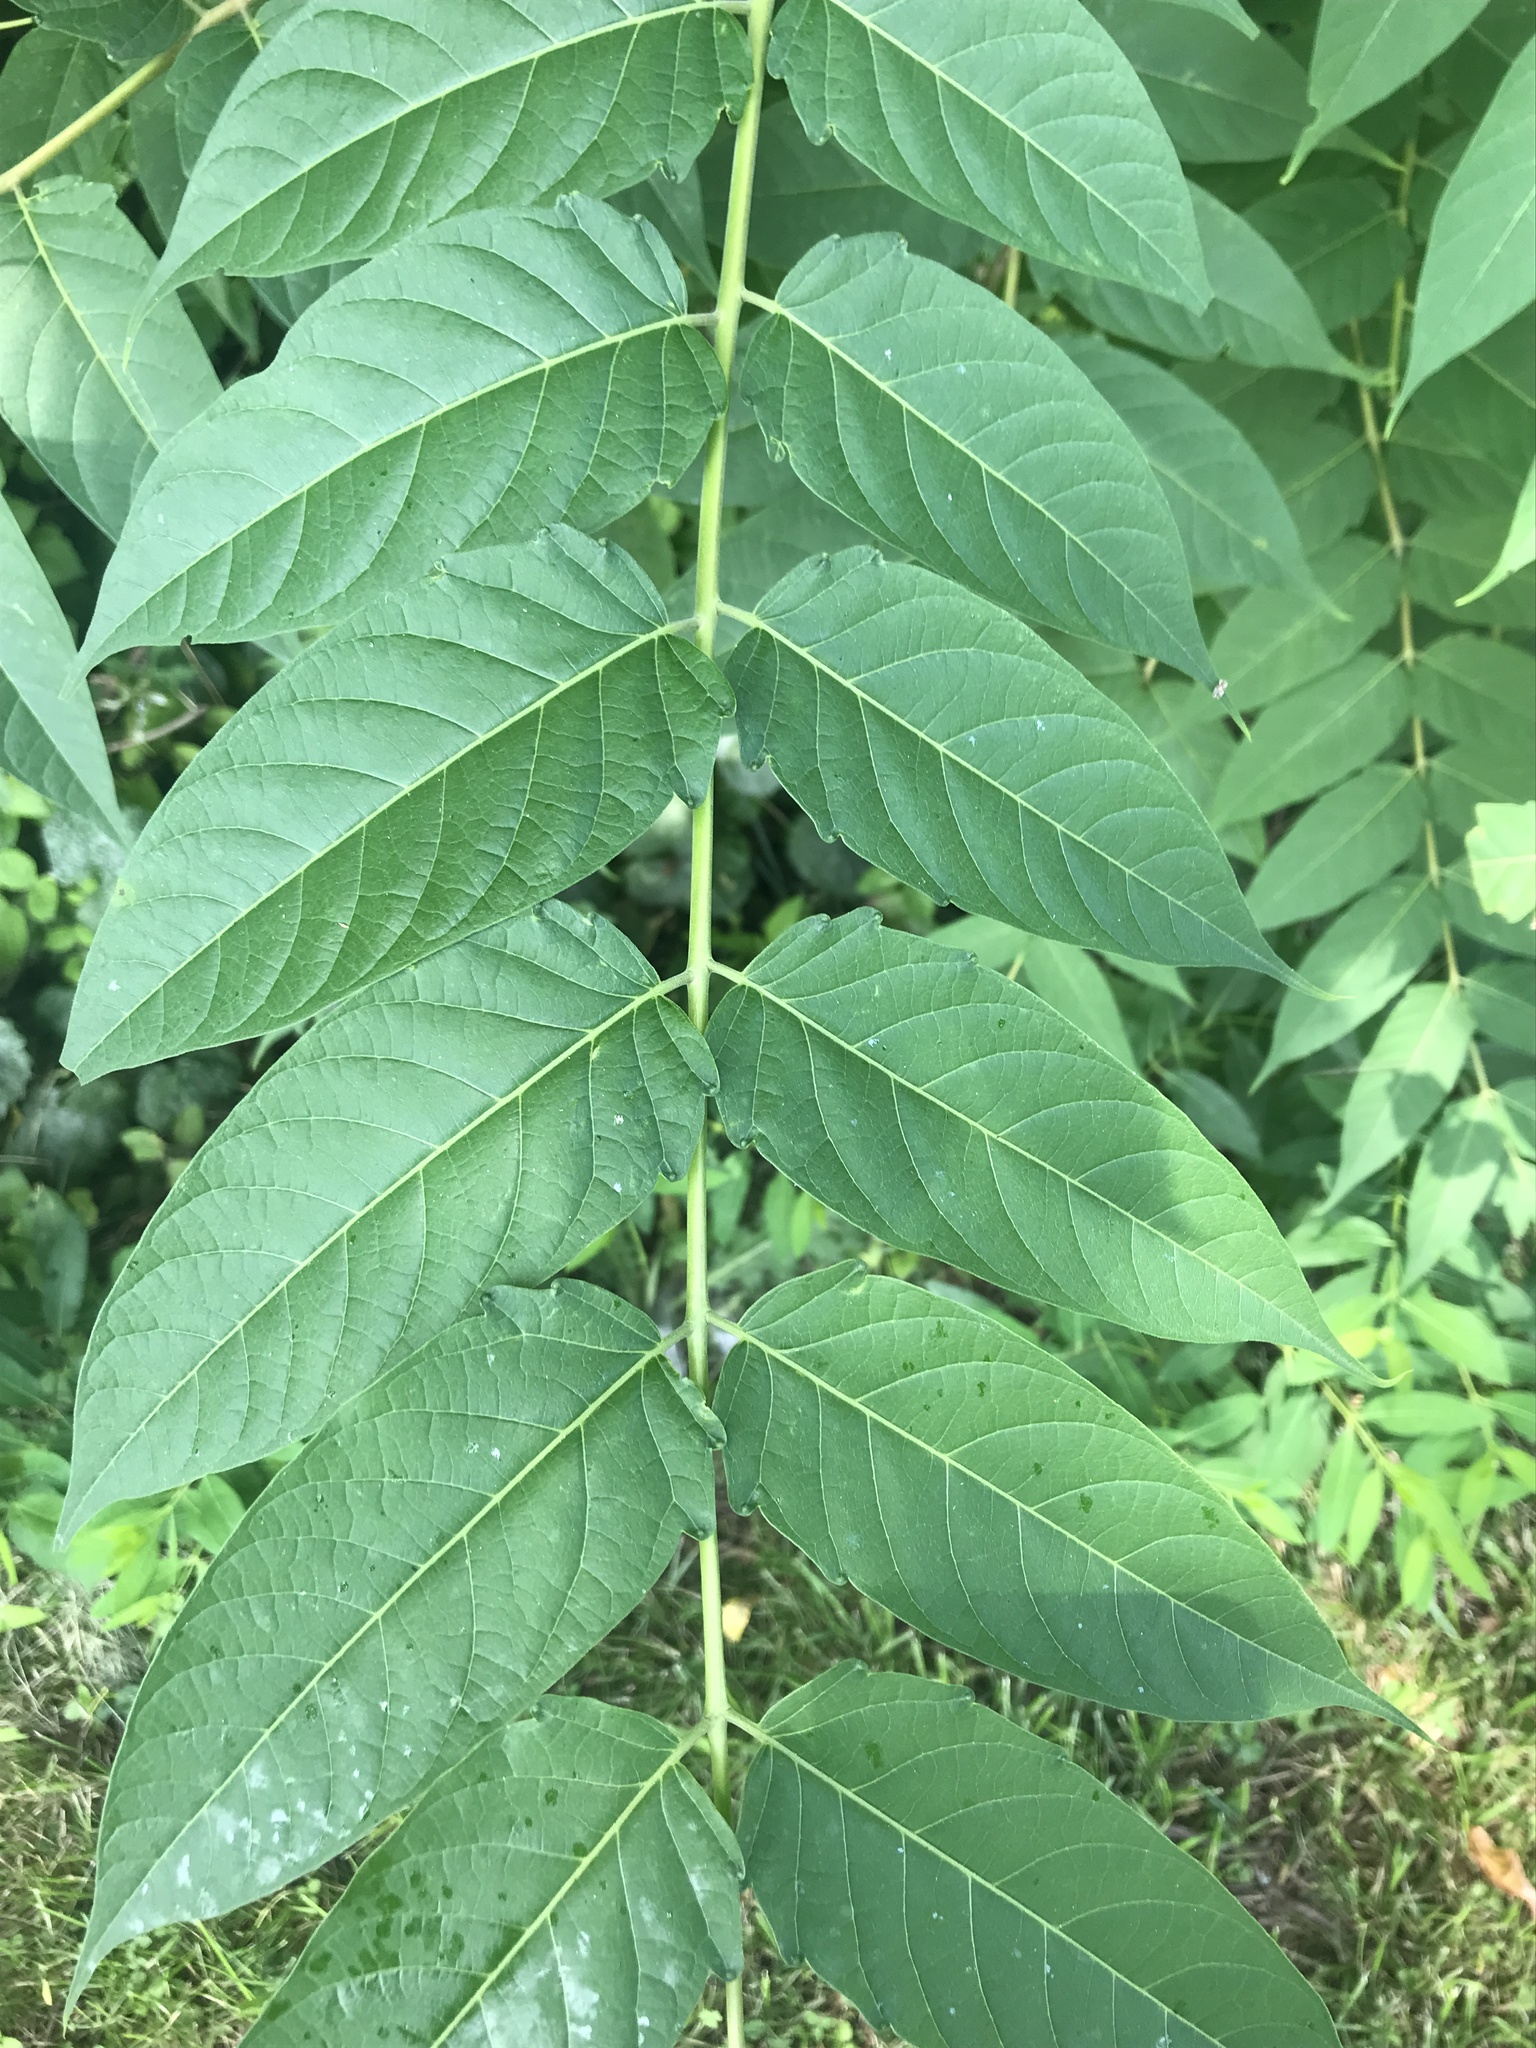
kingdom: Plantae
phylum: Tracheophyta
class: Magnoliopsida
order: Sapindales
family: Simaroubaceae
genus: Ailanthus
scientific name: Ailanthus altissima
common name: Tree-of-heaven
